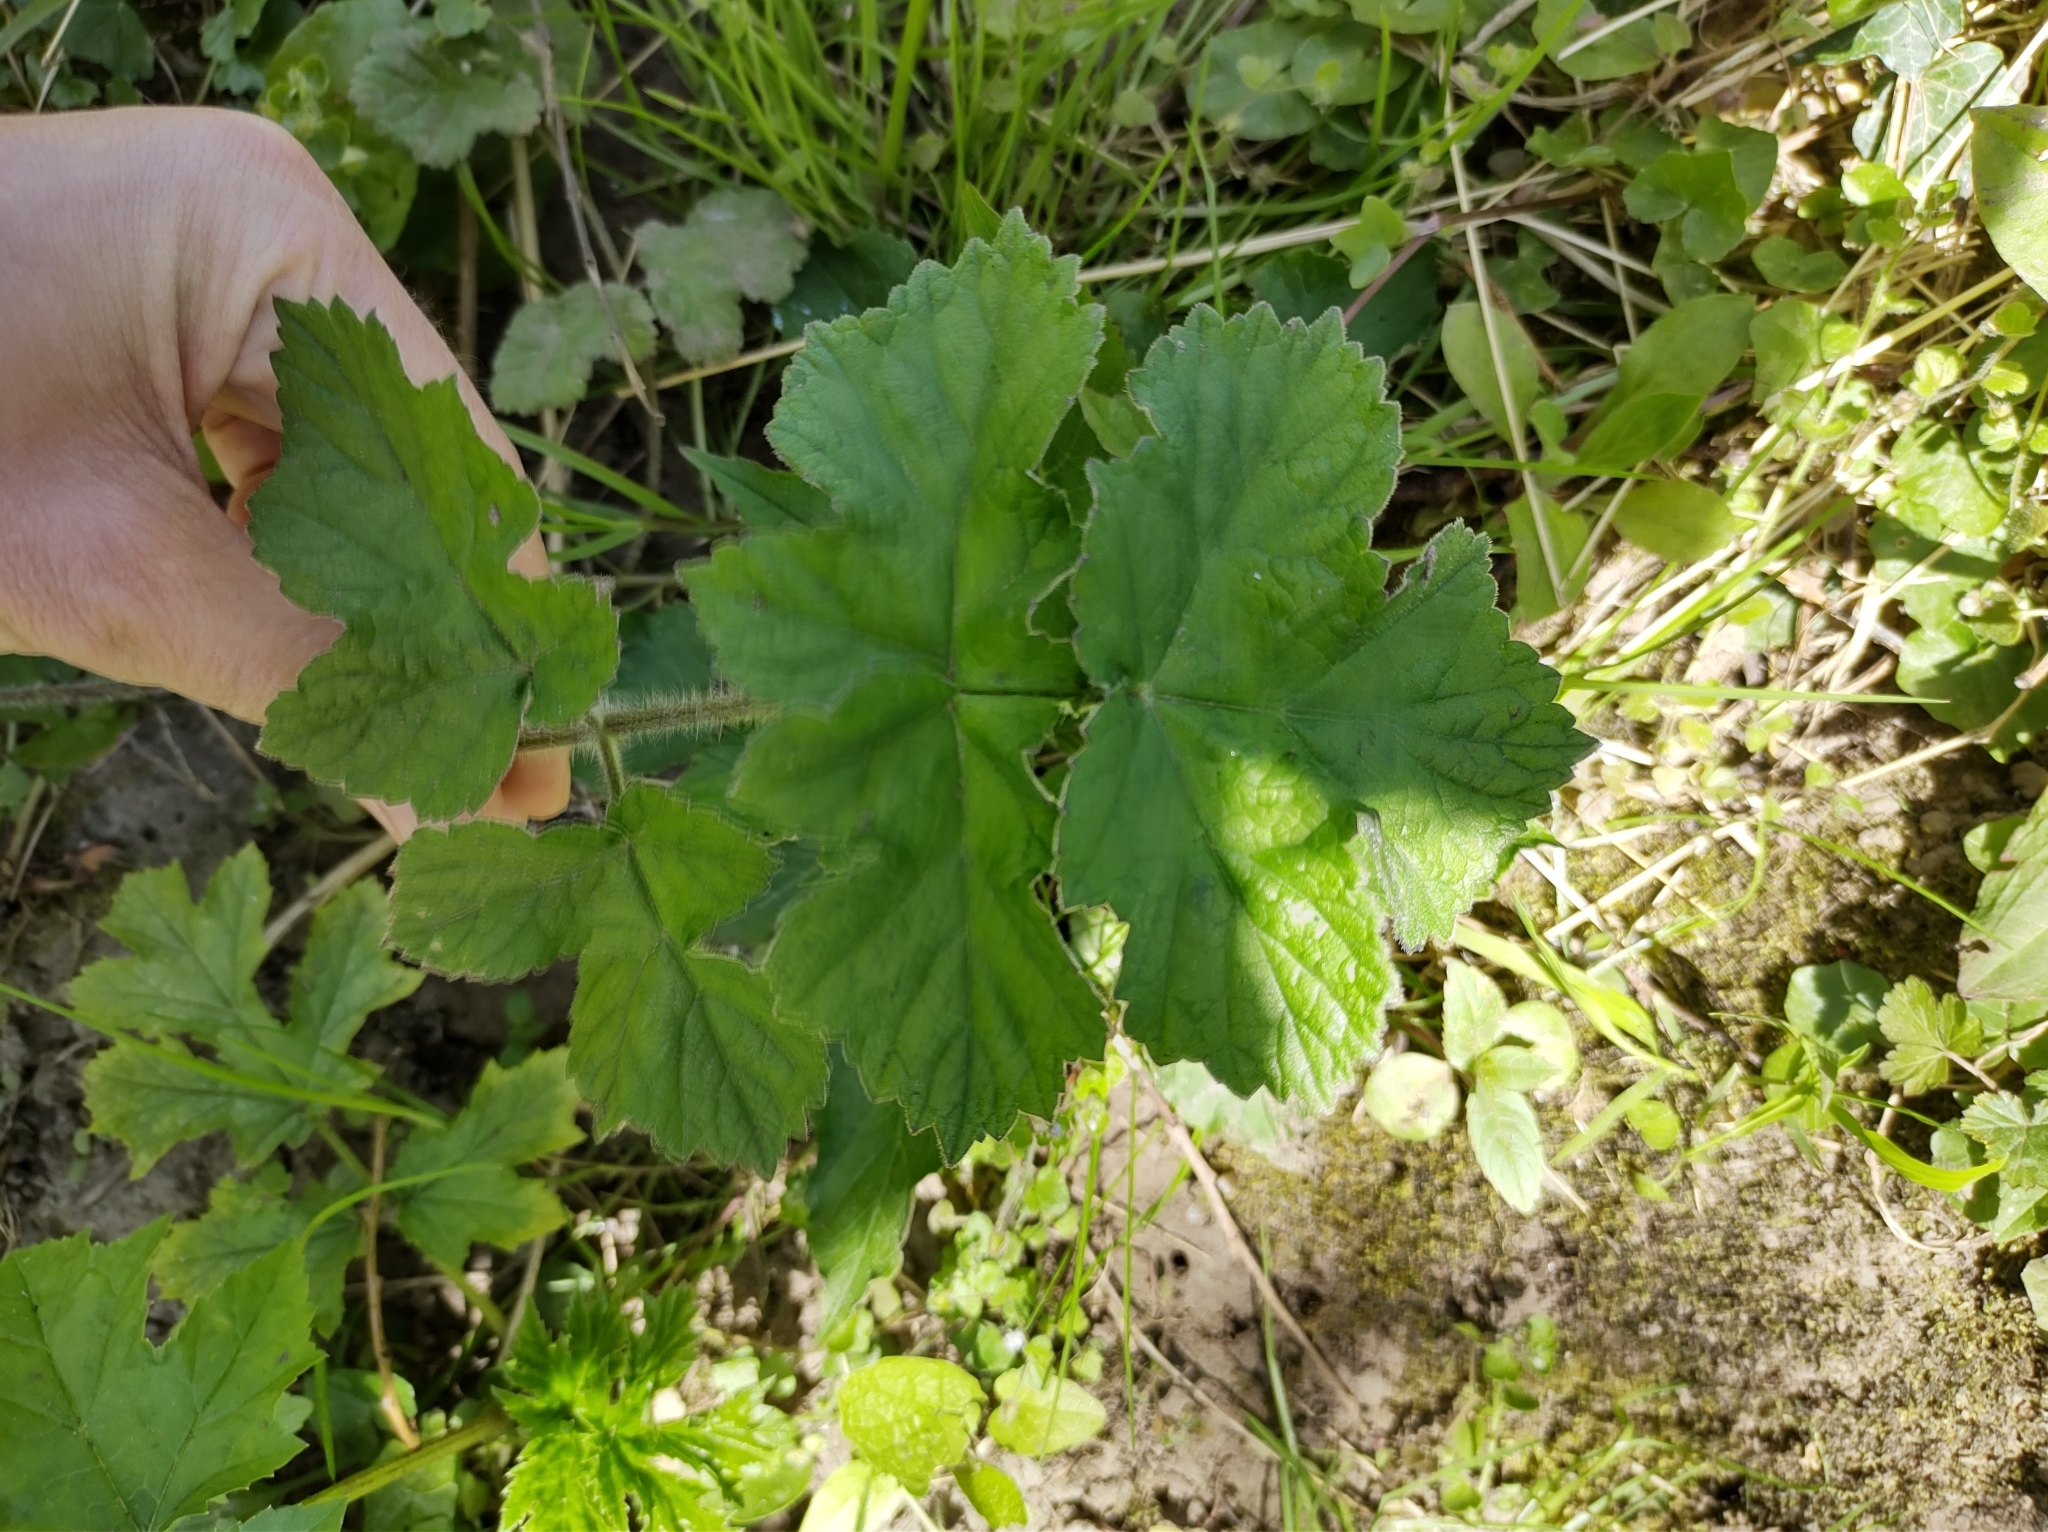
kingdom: Plantae
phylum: Tracheophyta
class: Magnoliopsida
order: Apiales
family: Apiaceae
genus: Heracleum
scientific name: Heracleum sphondylium
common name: Hogweed
